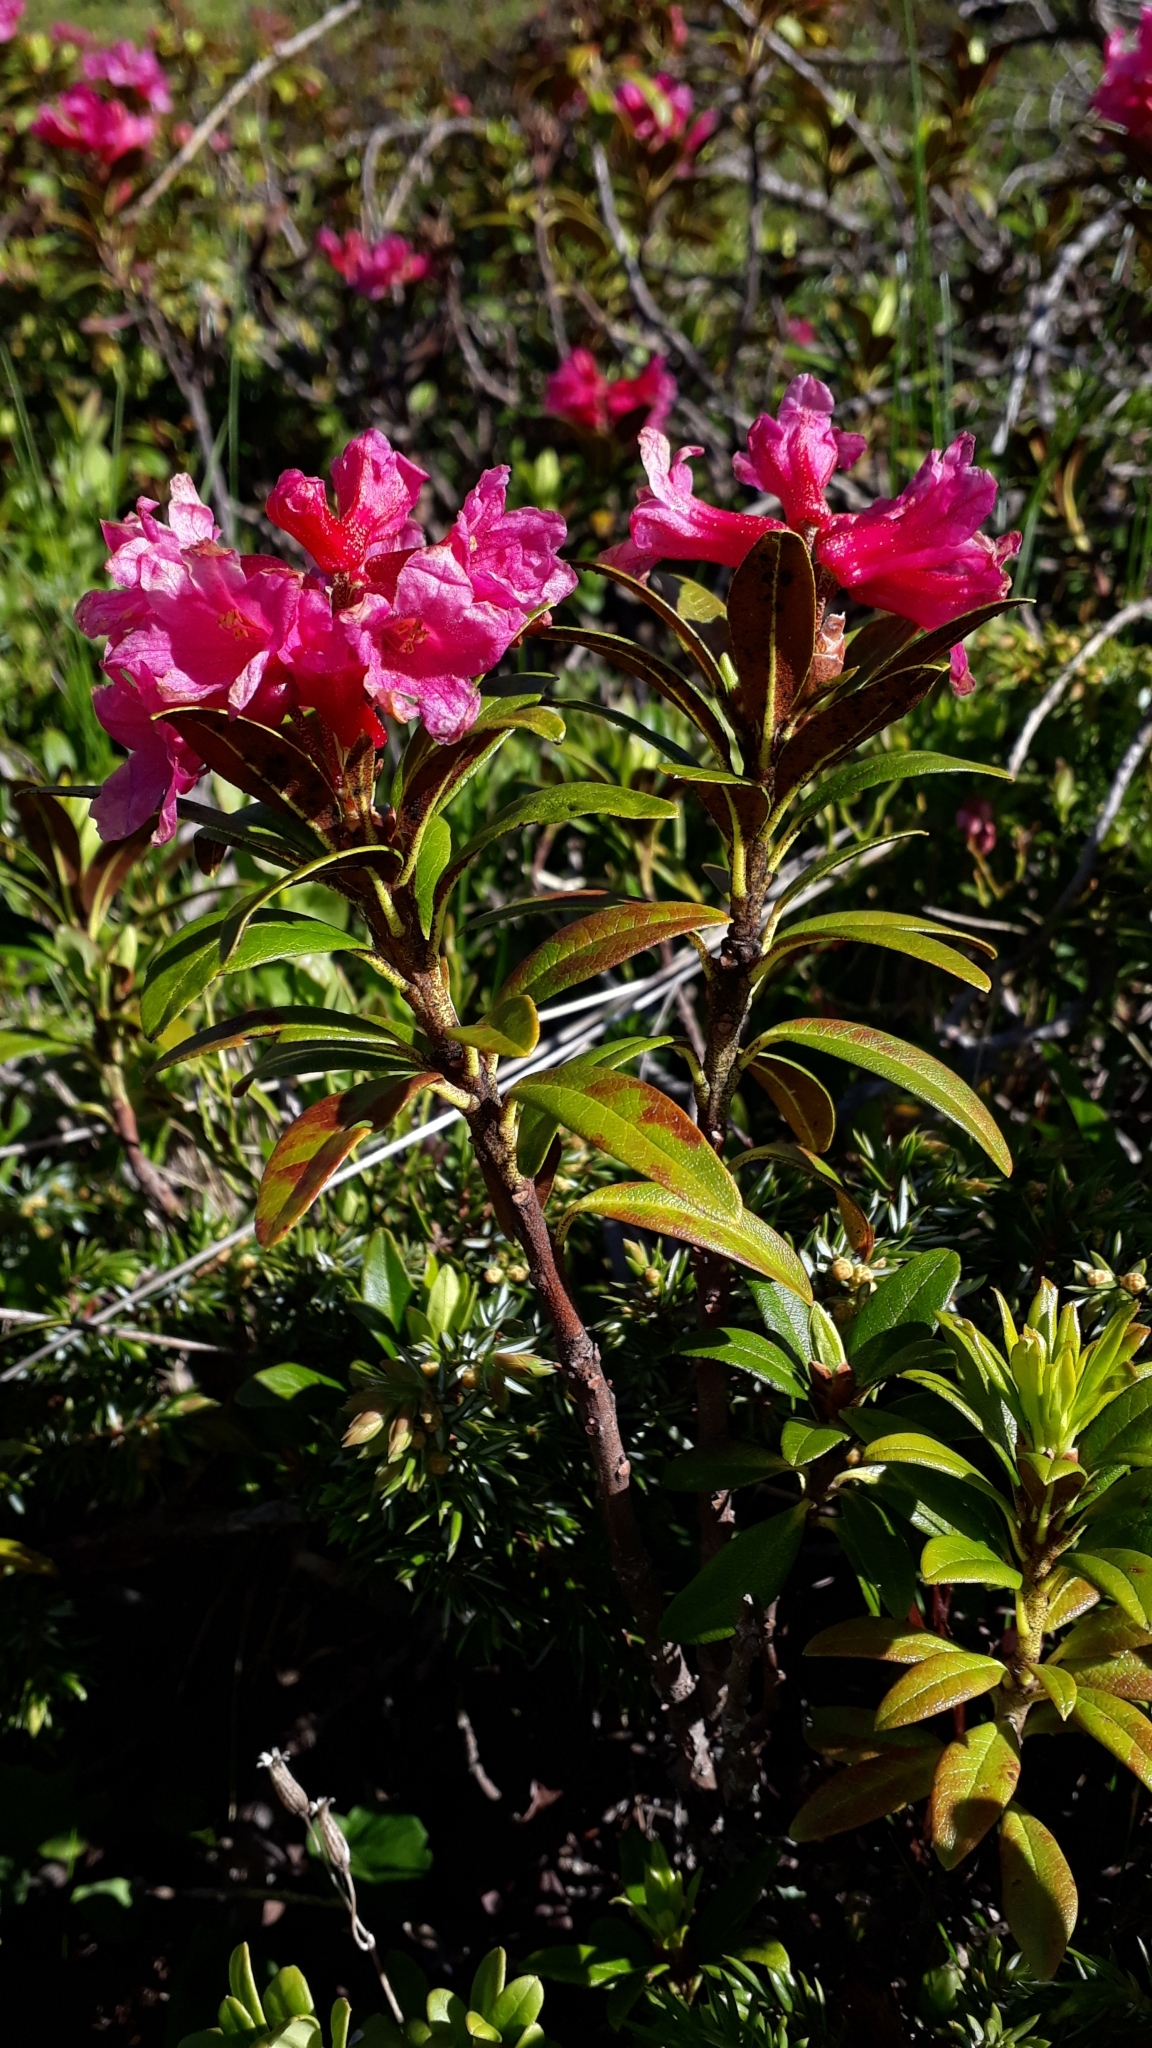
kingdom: Plantae
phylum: Tracheophyta
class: Magnoliopsida
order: Ericales
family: Ericaceae
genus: Rhododendron
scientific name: Rhododendron ferrugineum
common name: Alpenrose
